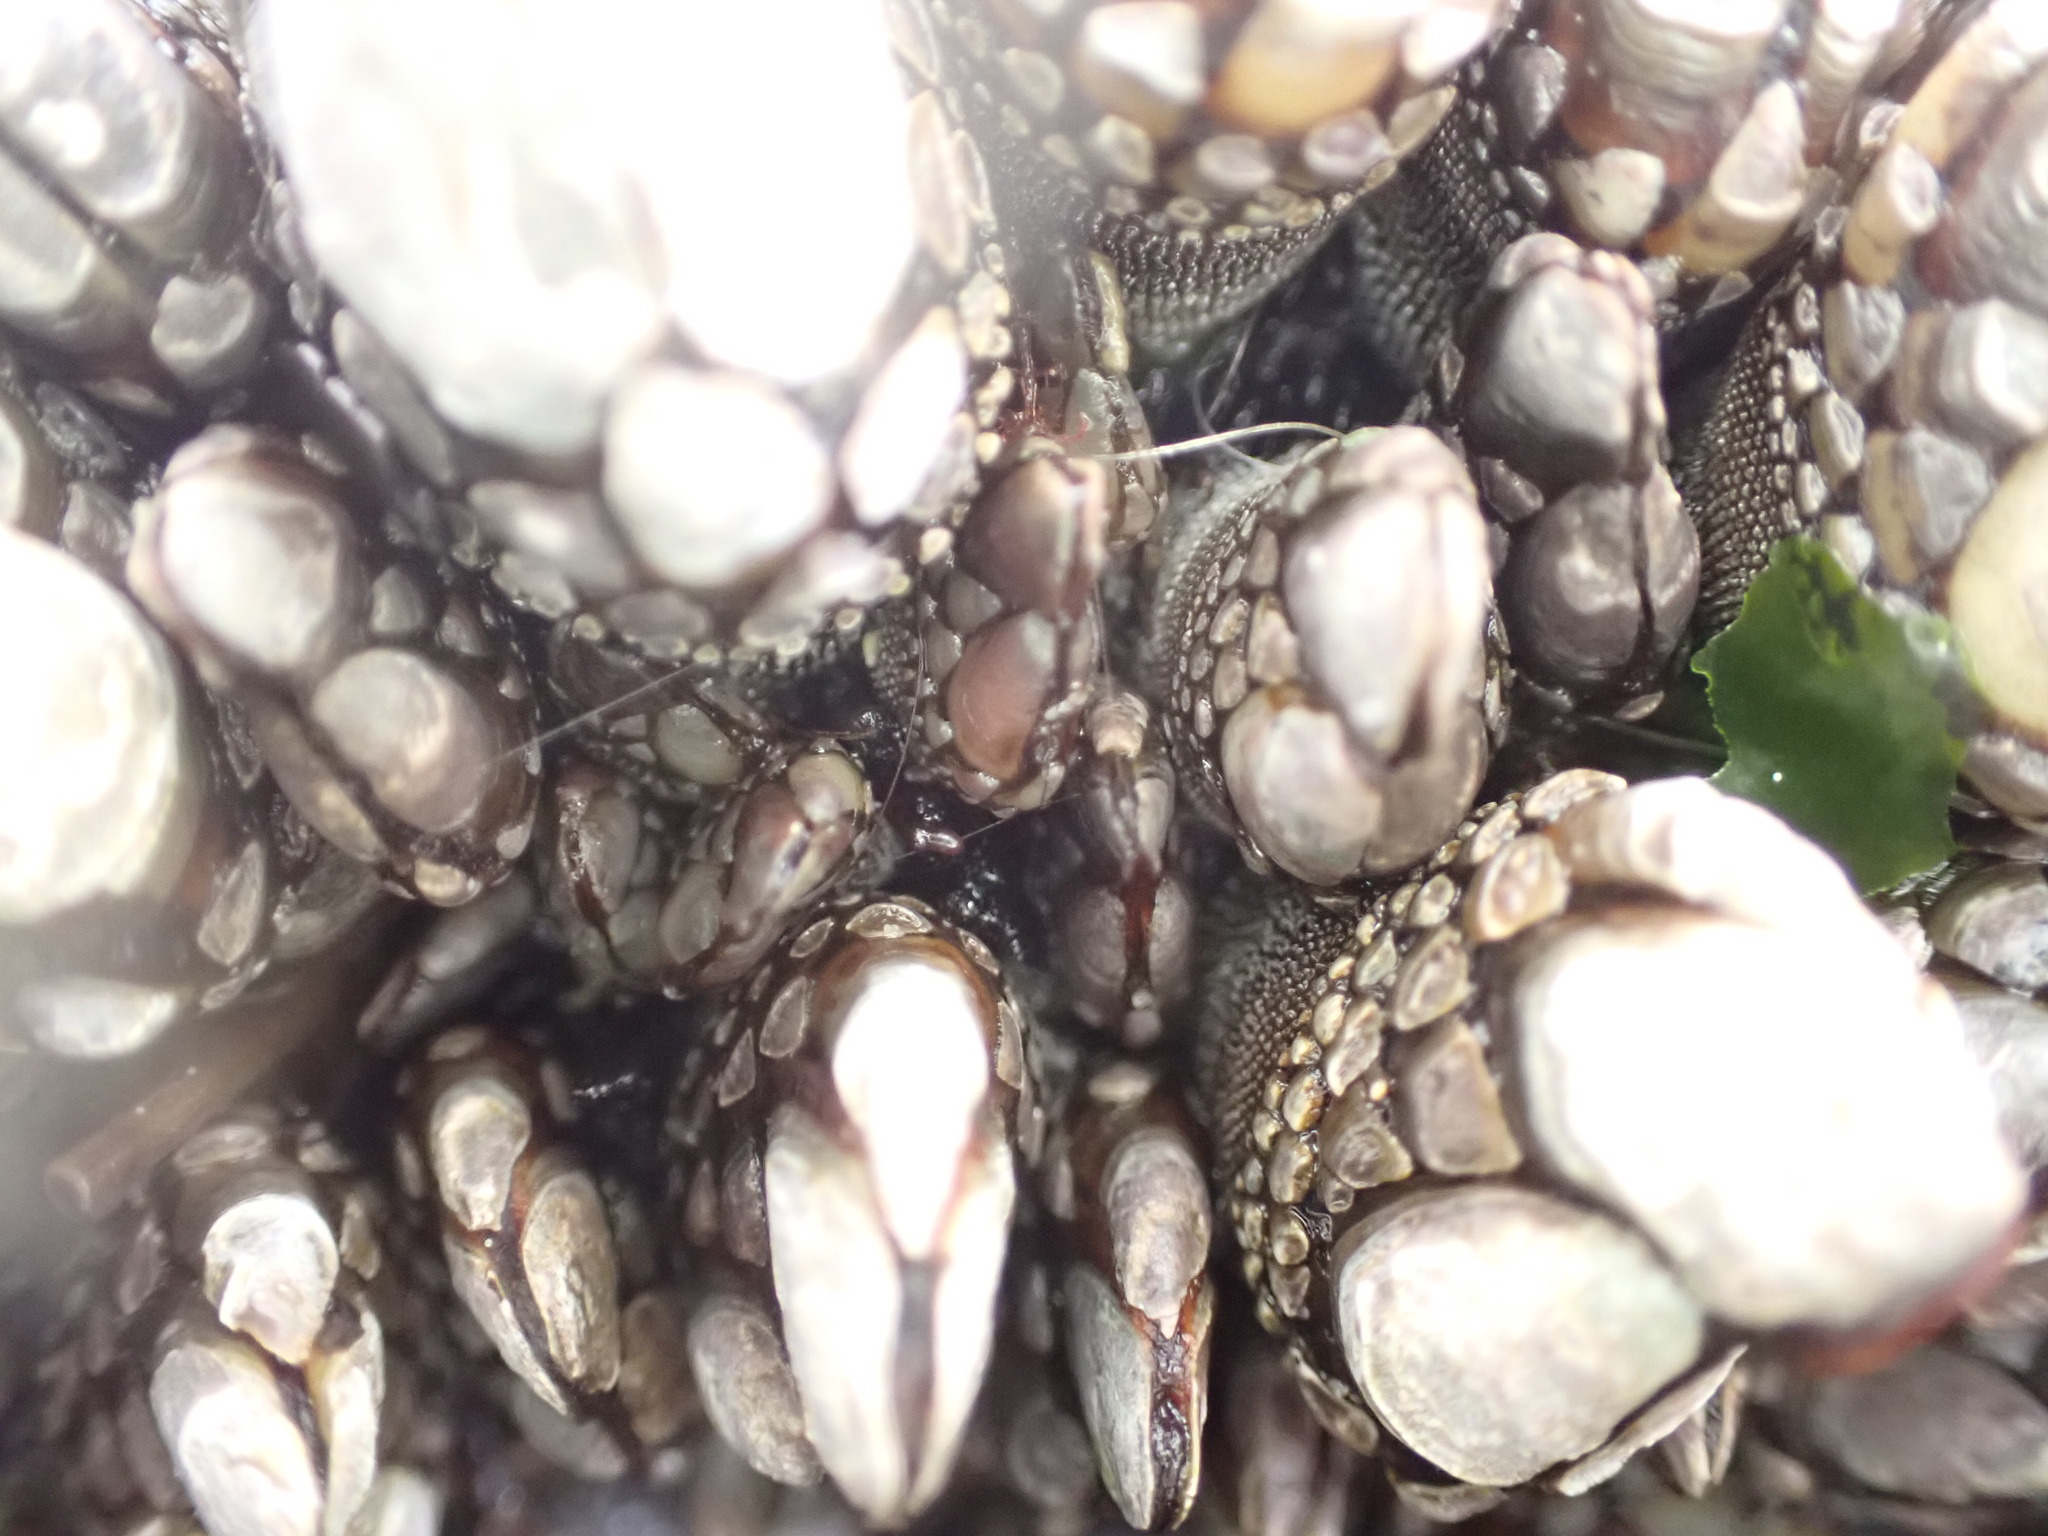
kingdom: Animalia
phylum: Arthropoda
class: Maxillopoda
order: Pedunculata
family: Pollicipedidae
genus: Pollicipes
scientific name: Pollicipes polymerus
